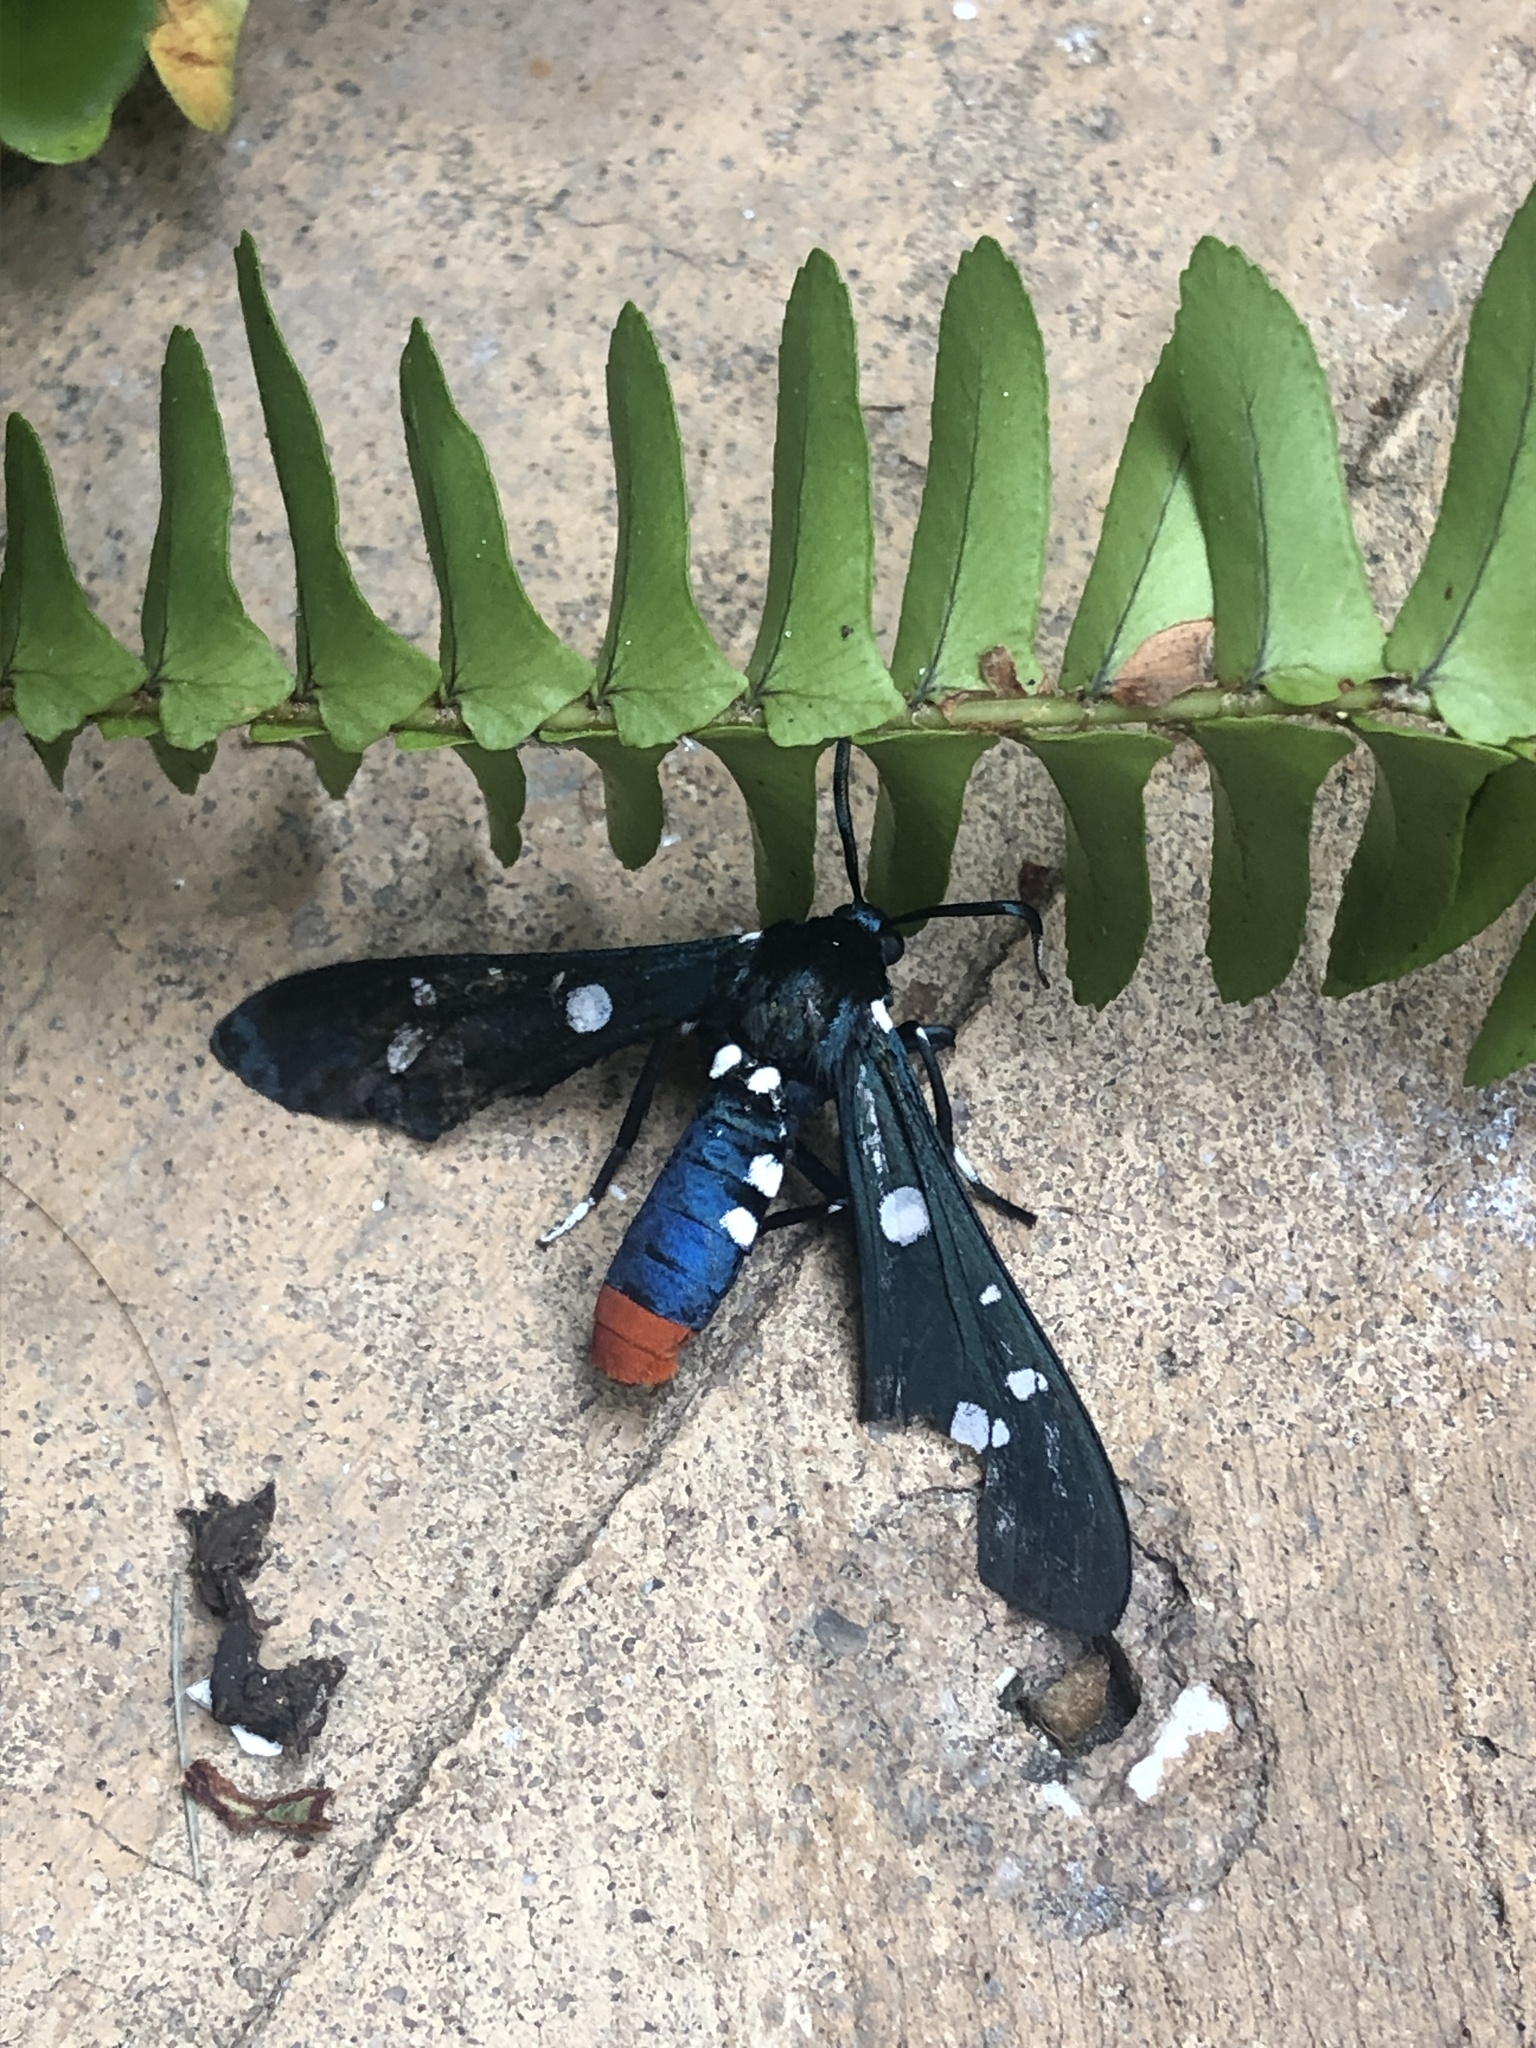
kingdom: Animalia
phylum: Arthropoda
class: Insecta
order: Lepidoptera
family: Erebidae
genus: Syntomeida
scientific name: Syntomeida epilais
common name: Polka-dot wasp moth
